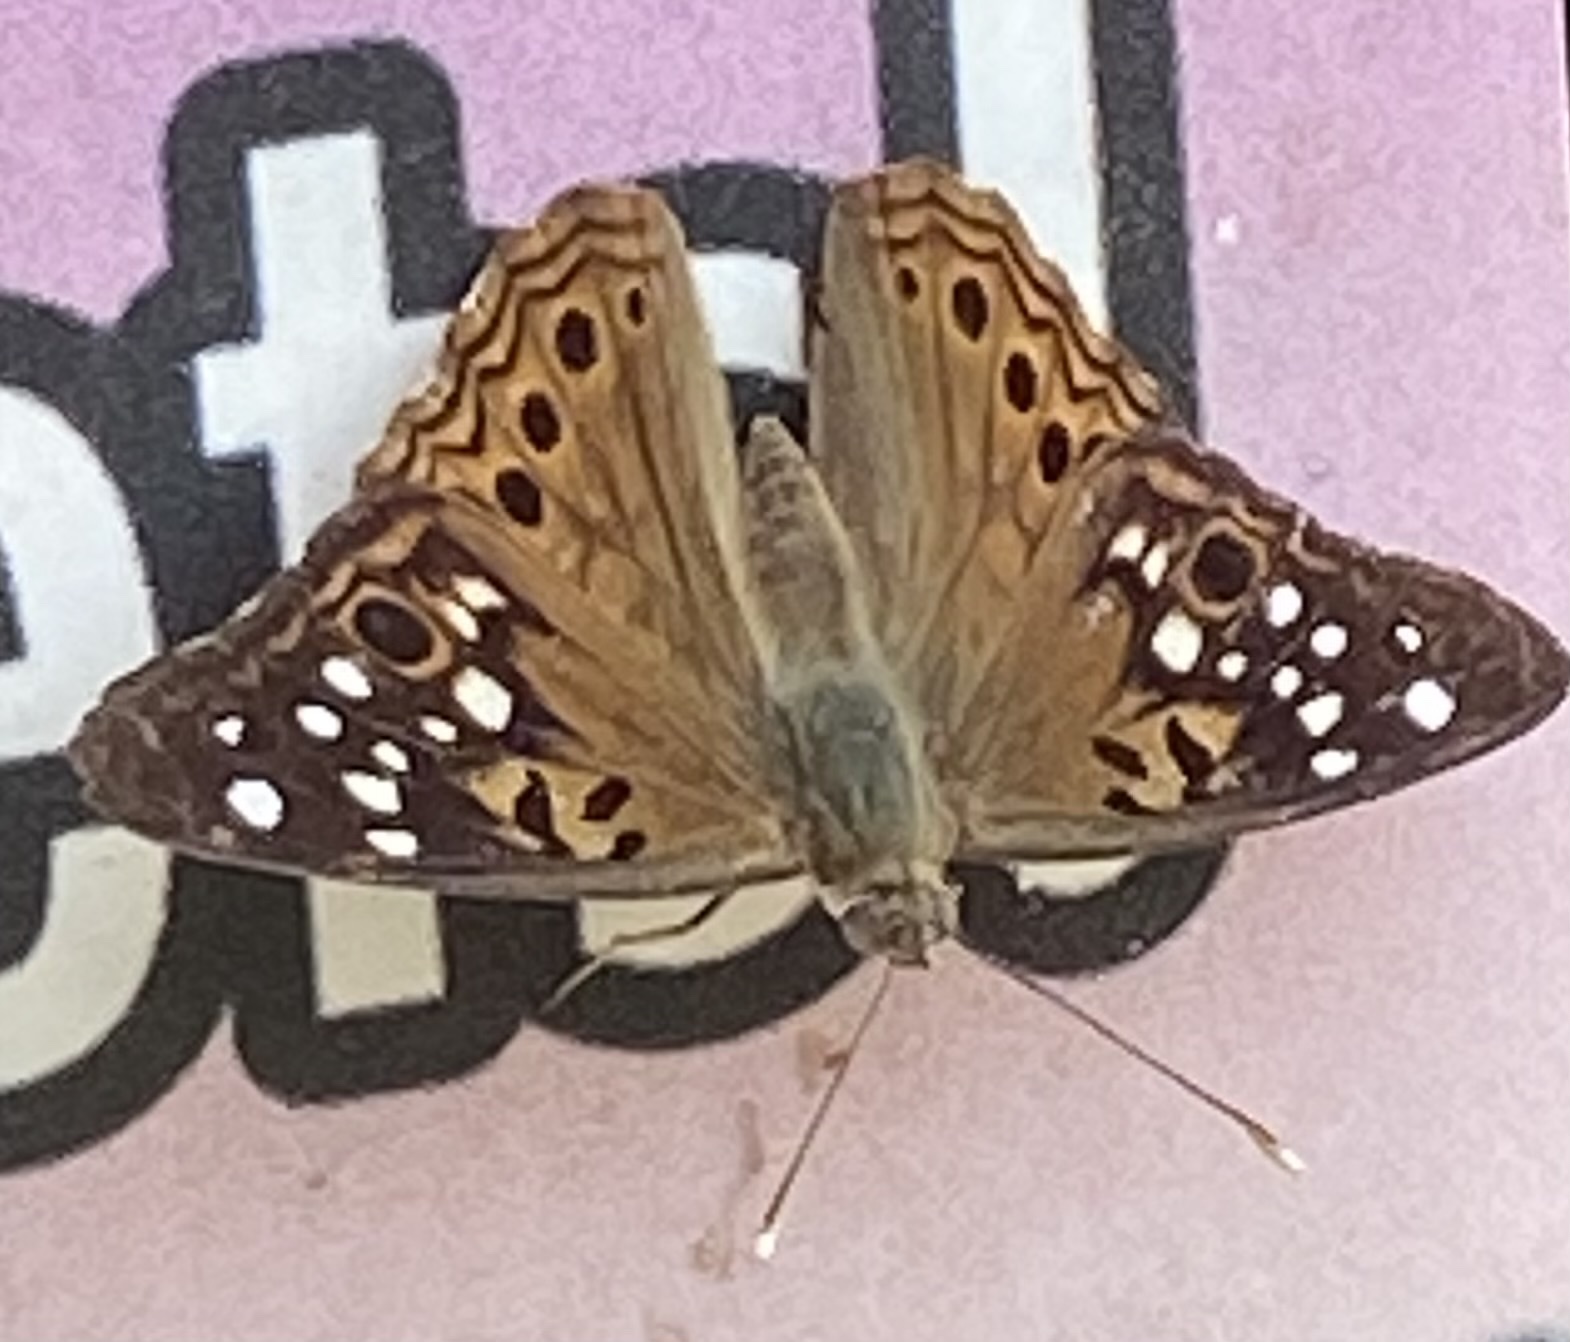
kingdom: Animalia
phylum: Arthropoda
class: Insecta
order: Lepidoptera
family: Nymphalidae
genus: Asterocampa
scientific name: Asterocampa celtis
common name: Hackberry emperor
